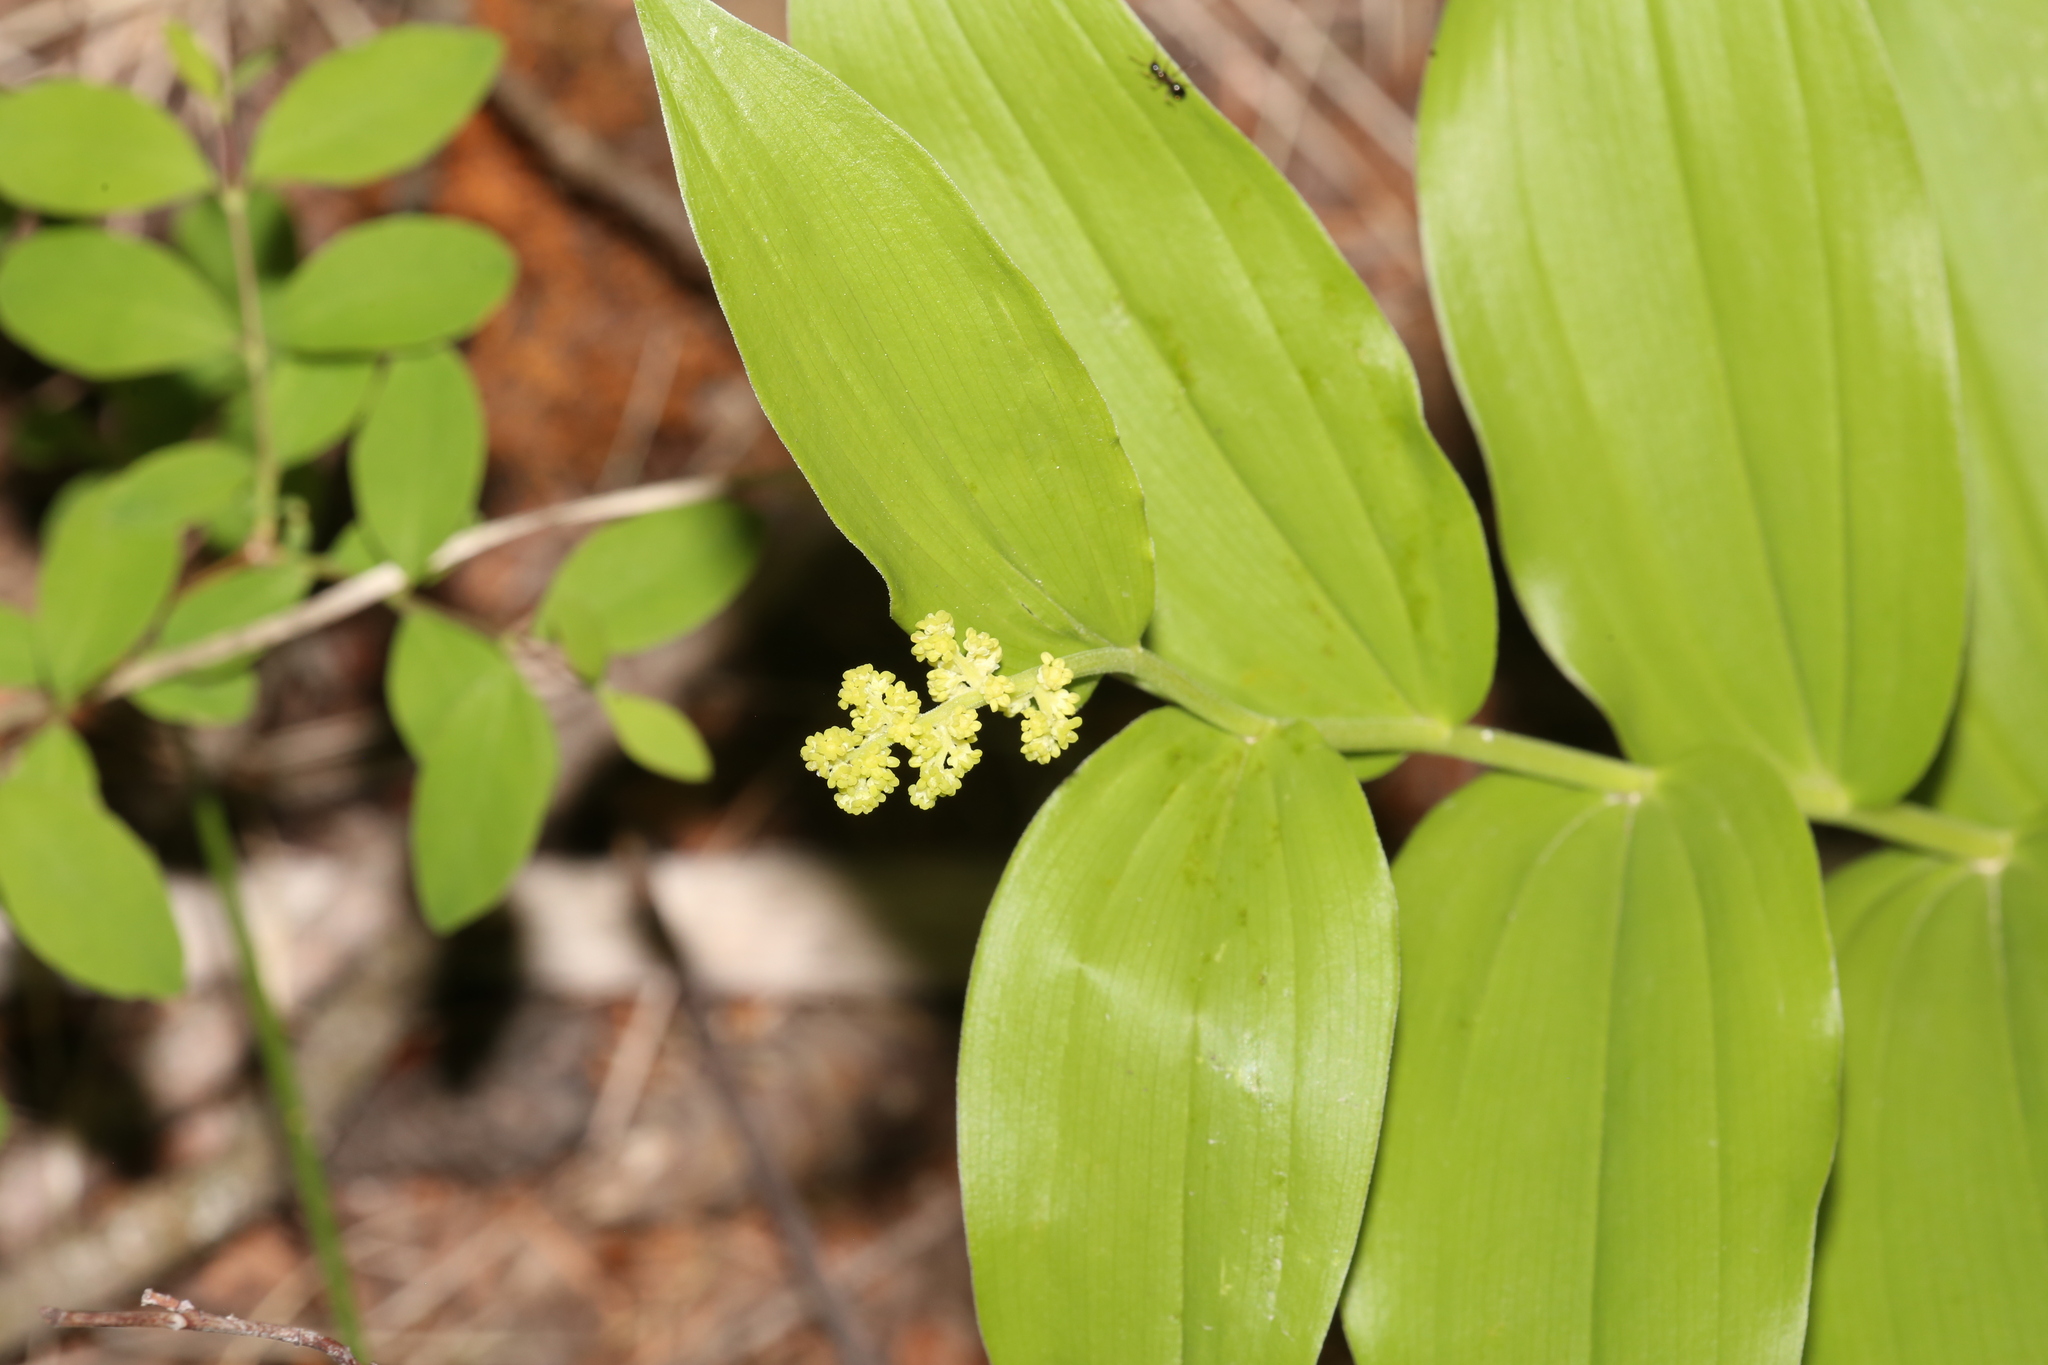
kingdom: Plantae
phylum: Tracheophyta
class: Liliopsida
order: Asparagales
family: Asparagaceae
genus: Maianthemum
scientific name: Maianthemum racemosum
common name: False spikenard
